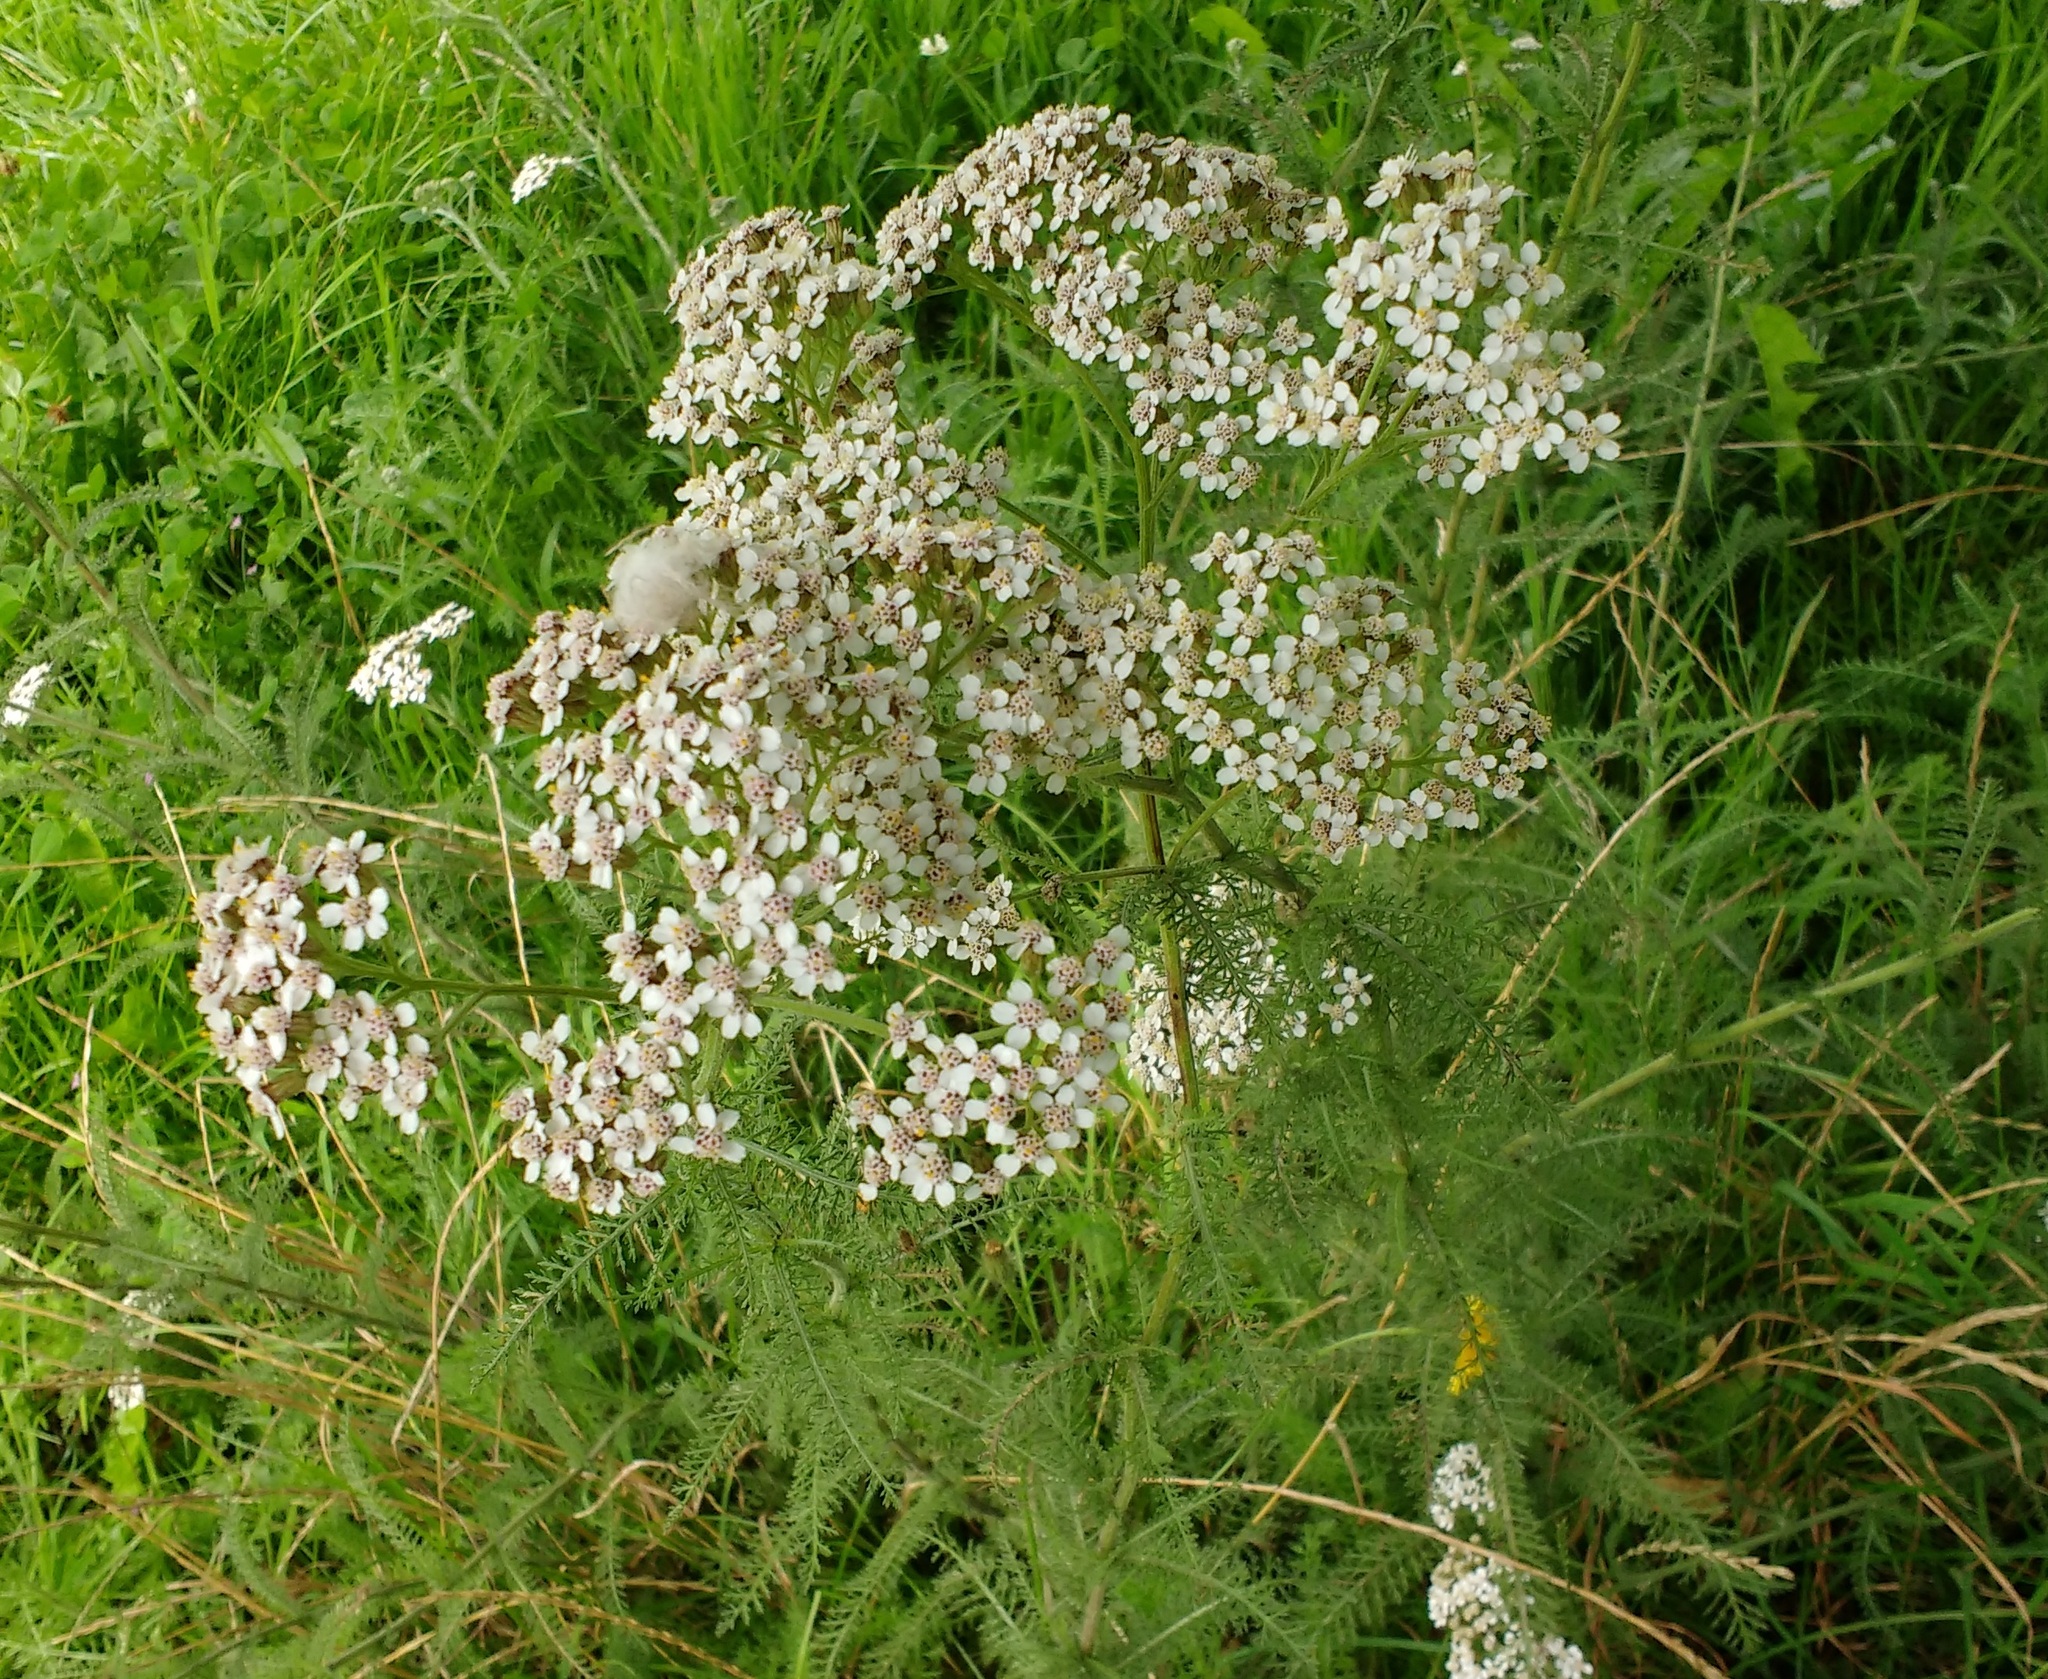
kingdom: Plantae
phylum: Tracheophyta
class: Magnoliopsida
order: Asterales
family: Asteraceae
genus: Achillea
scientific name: Achillea millefolium
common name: Yarrow
